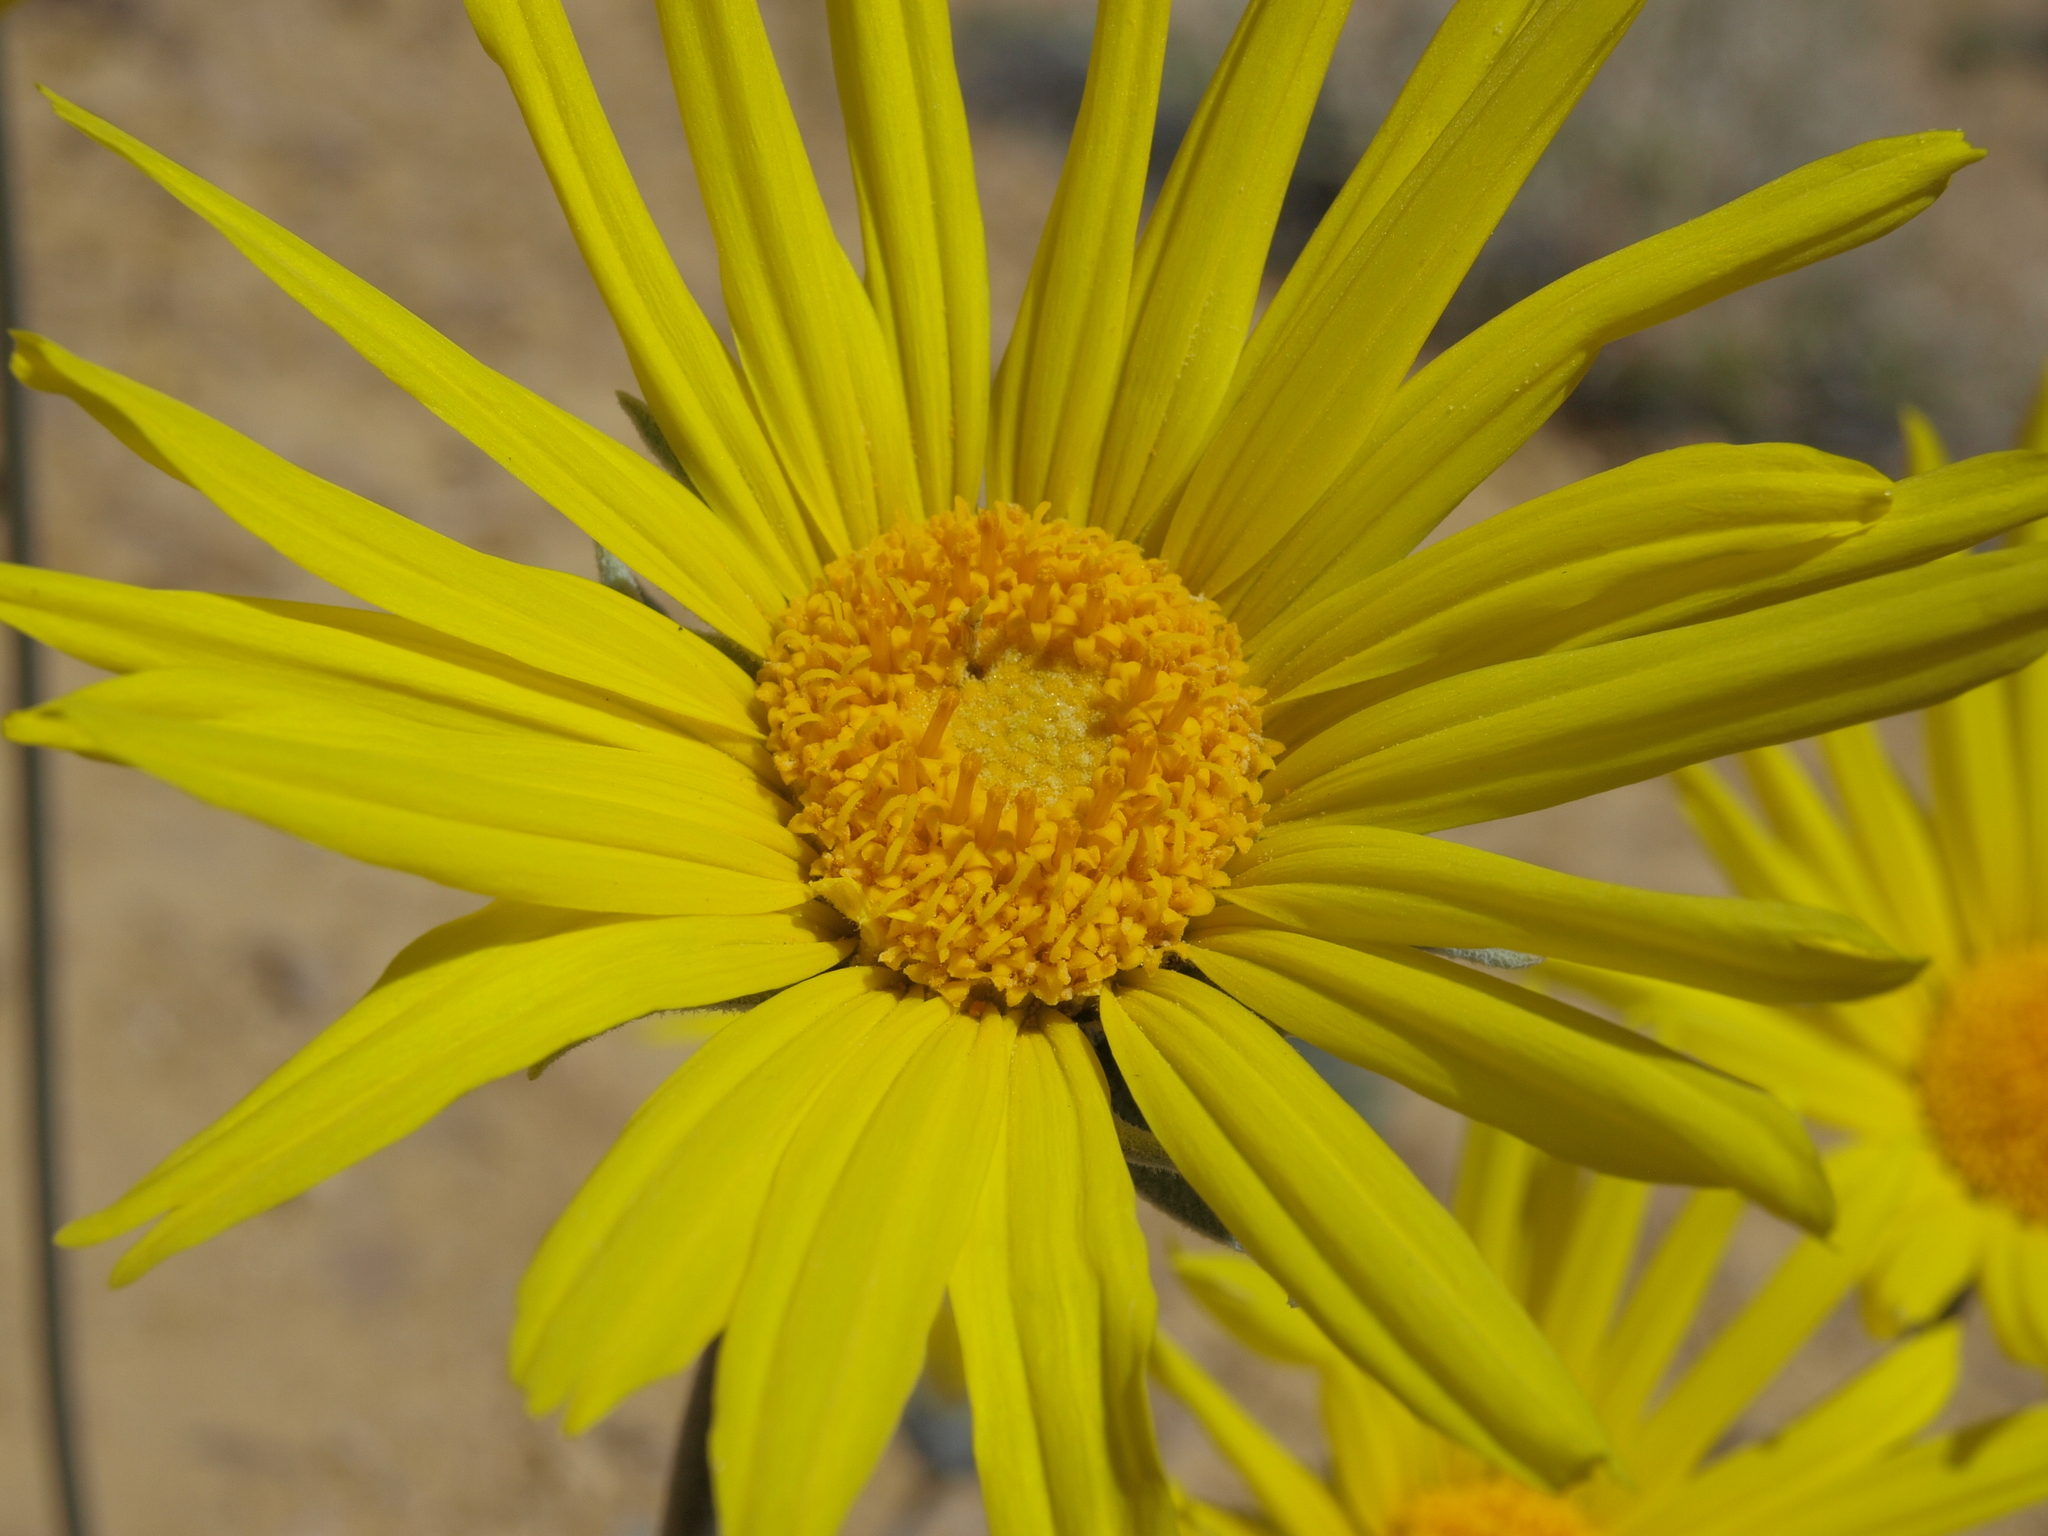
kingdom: Plantae
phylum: Tracheophyta
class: Magnoliopsida
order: Asterales
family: Asteraceae
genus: Enceliopsis
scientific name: Enceliopsis nudicaulis
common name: Naked-stem daisy
